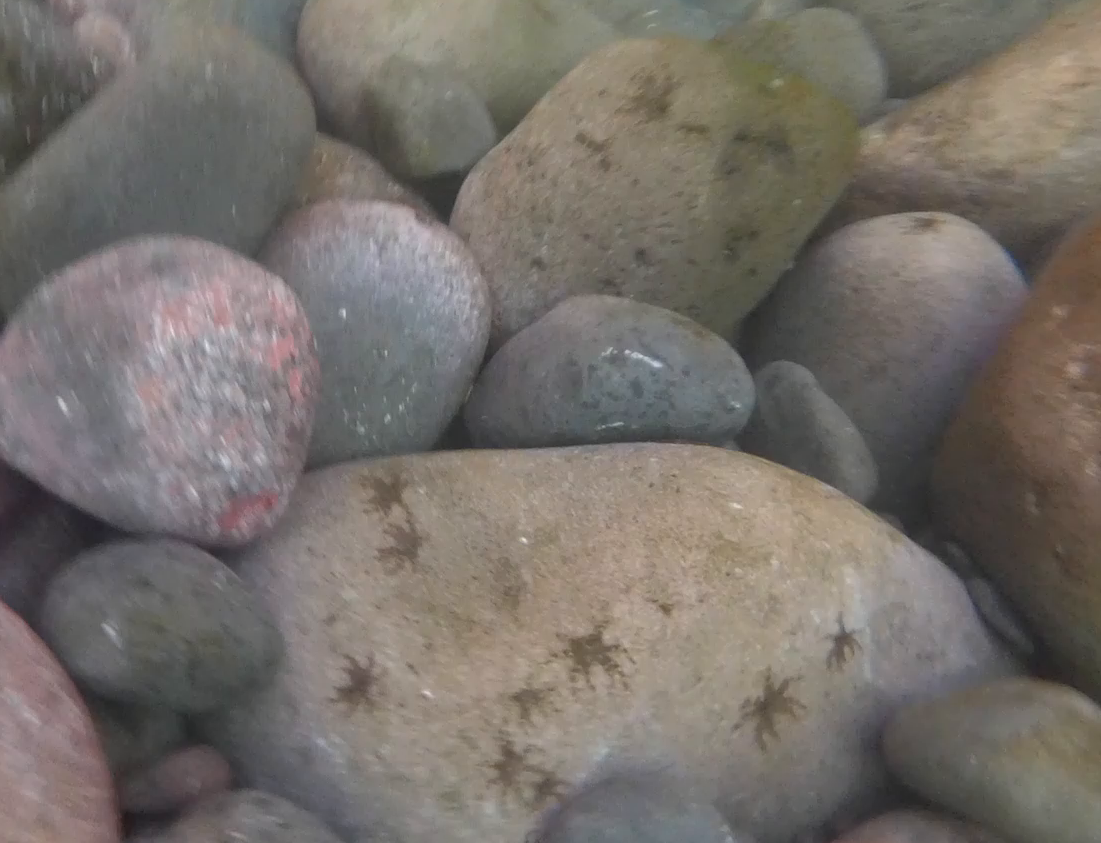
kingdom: Animalia
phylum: Arthropoda
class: Malacostraca
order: Decapoda
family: Percnidae
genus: Percnon
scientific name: Percnon gibbesi
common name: Nimble spray crab
